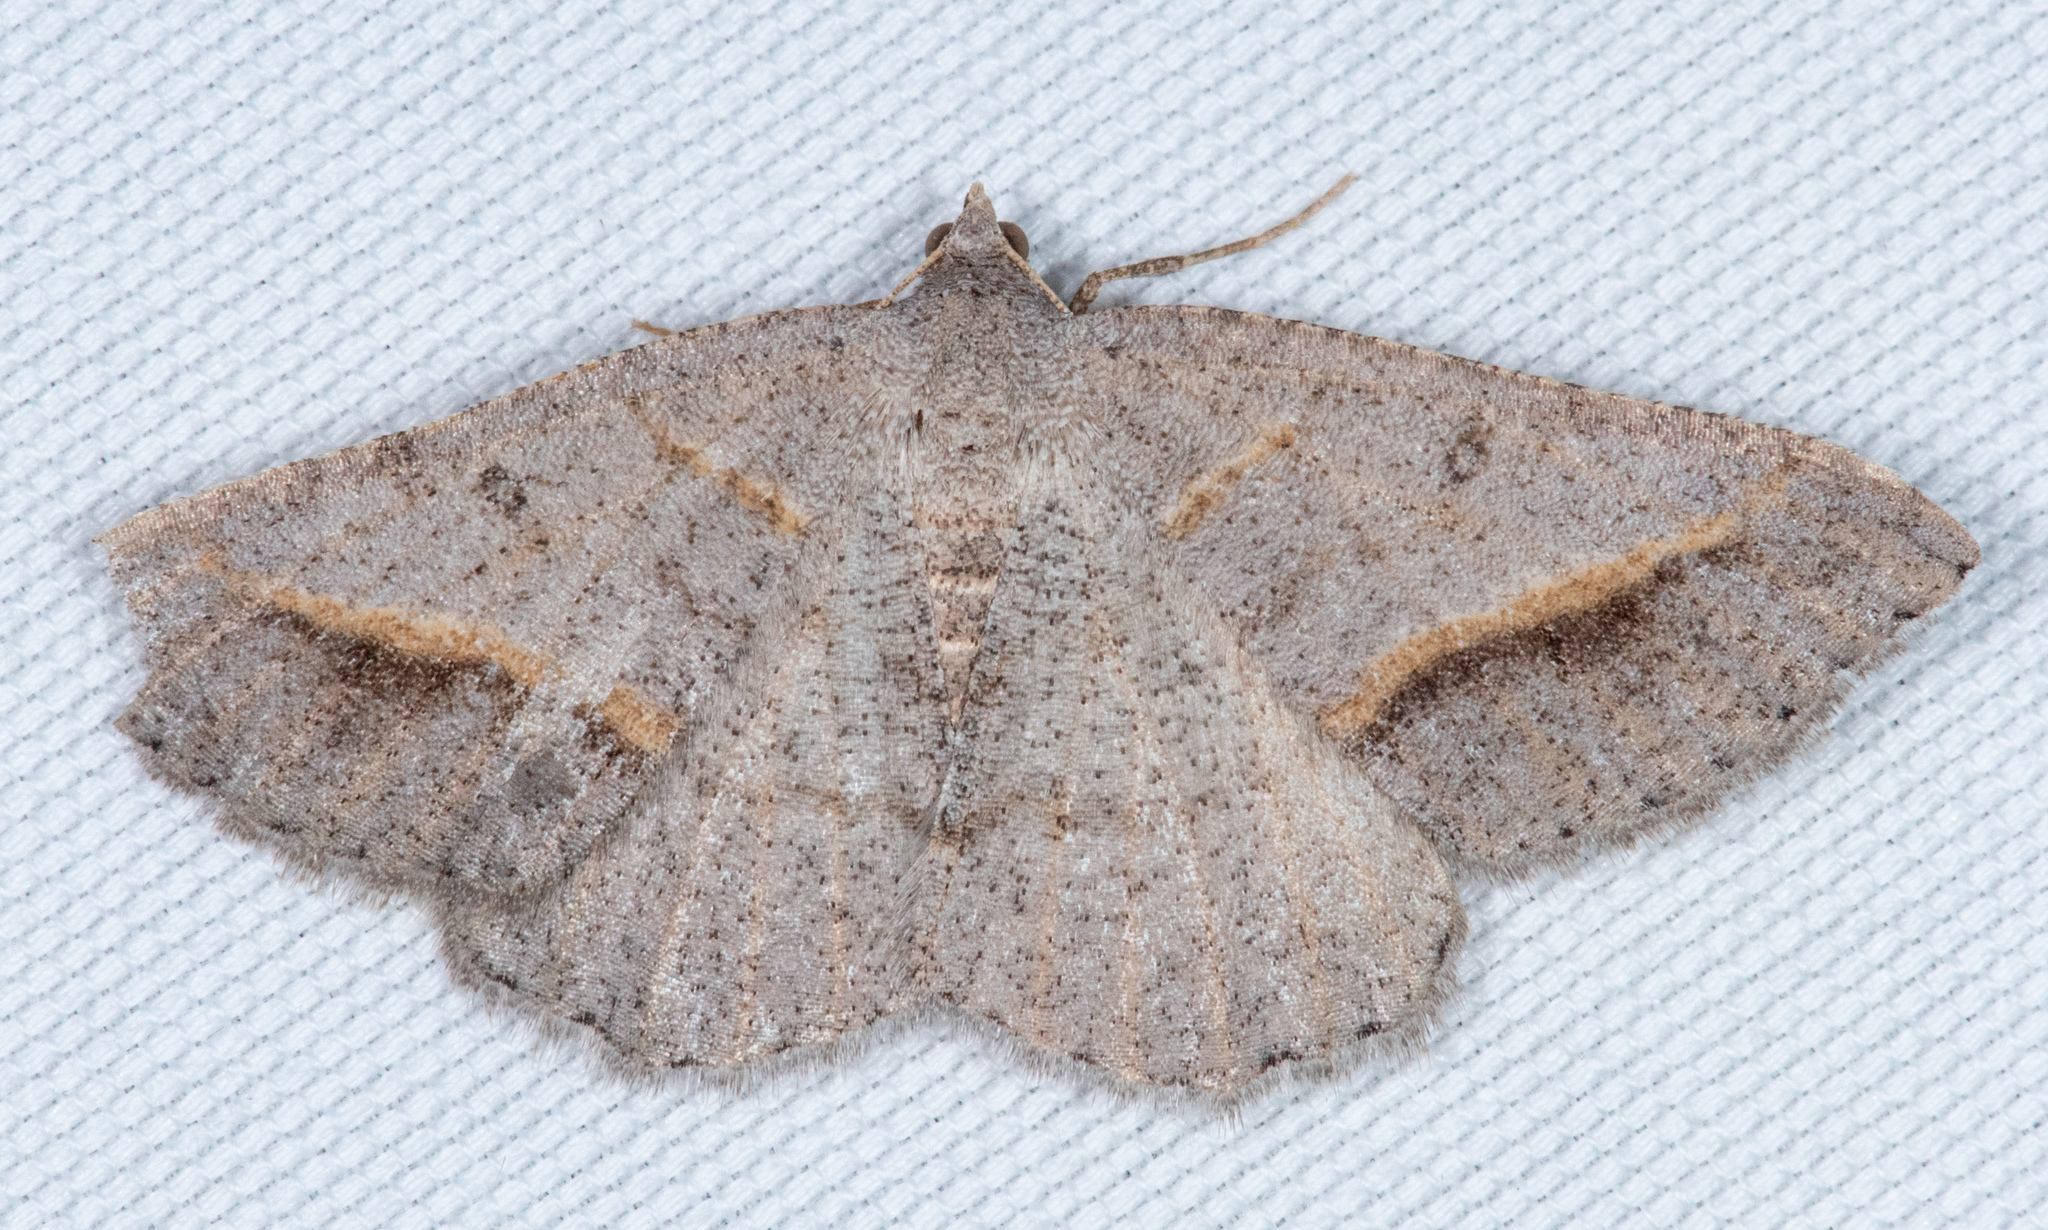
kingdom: Animalia
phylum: Arthropoda
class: Insecta
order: Lepidoptera
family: Geometridae
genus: Digrammia
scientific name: Digrammia neptaria
